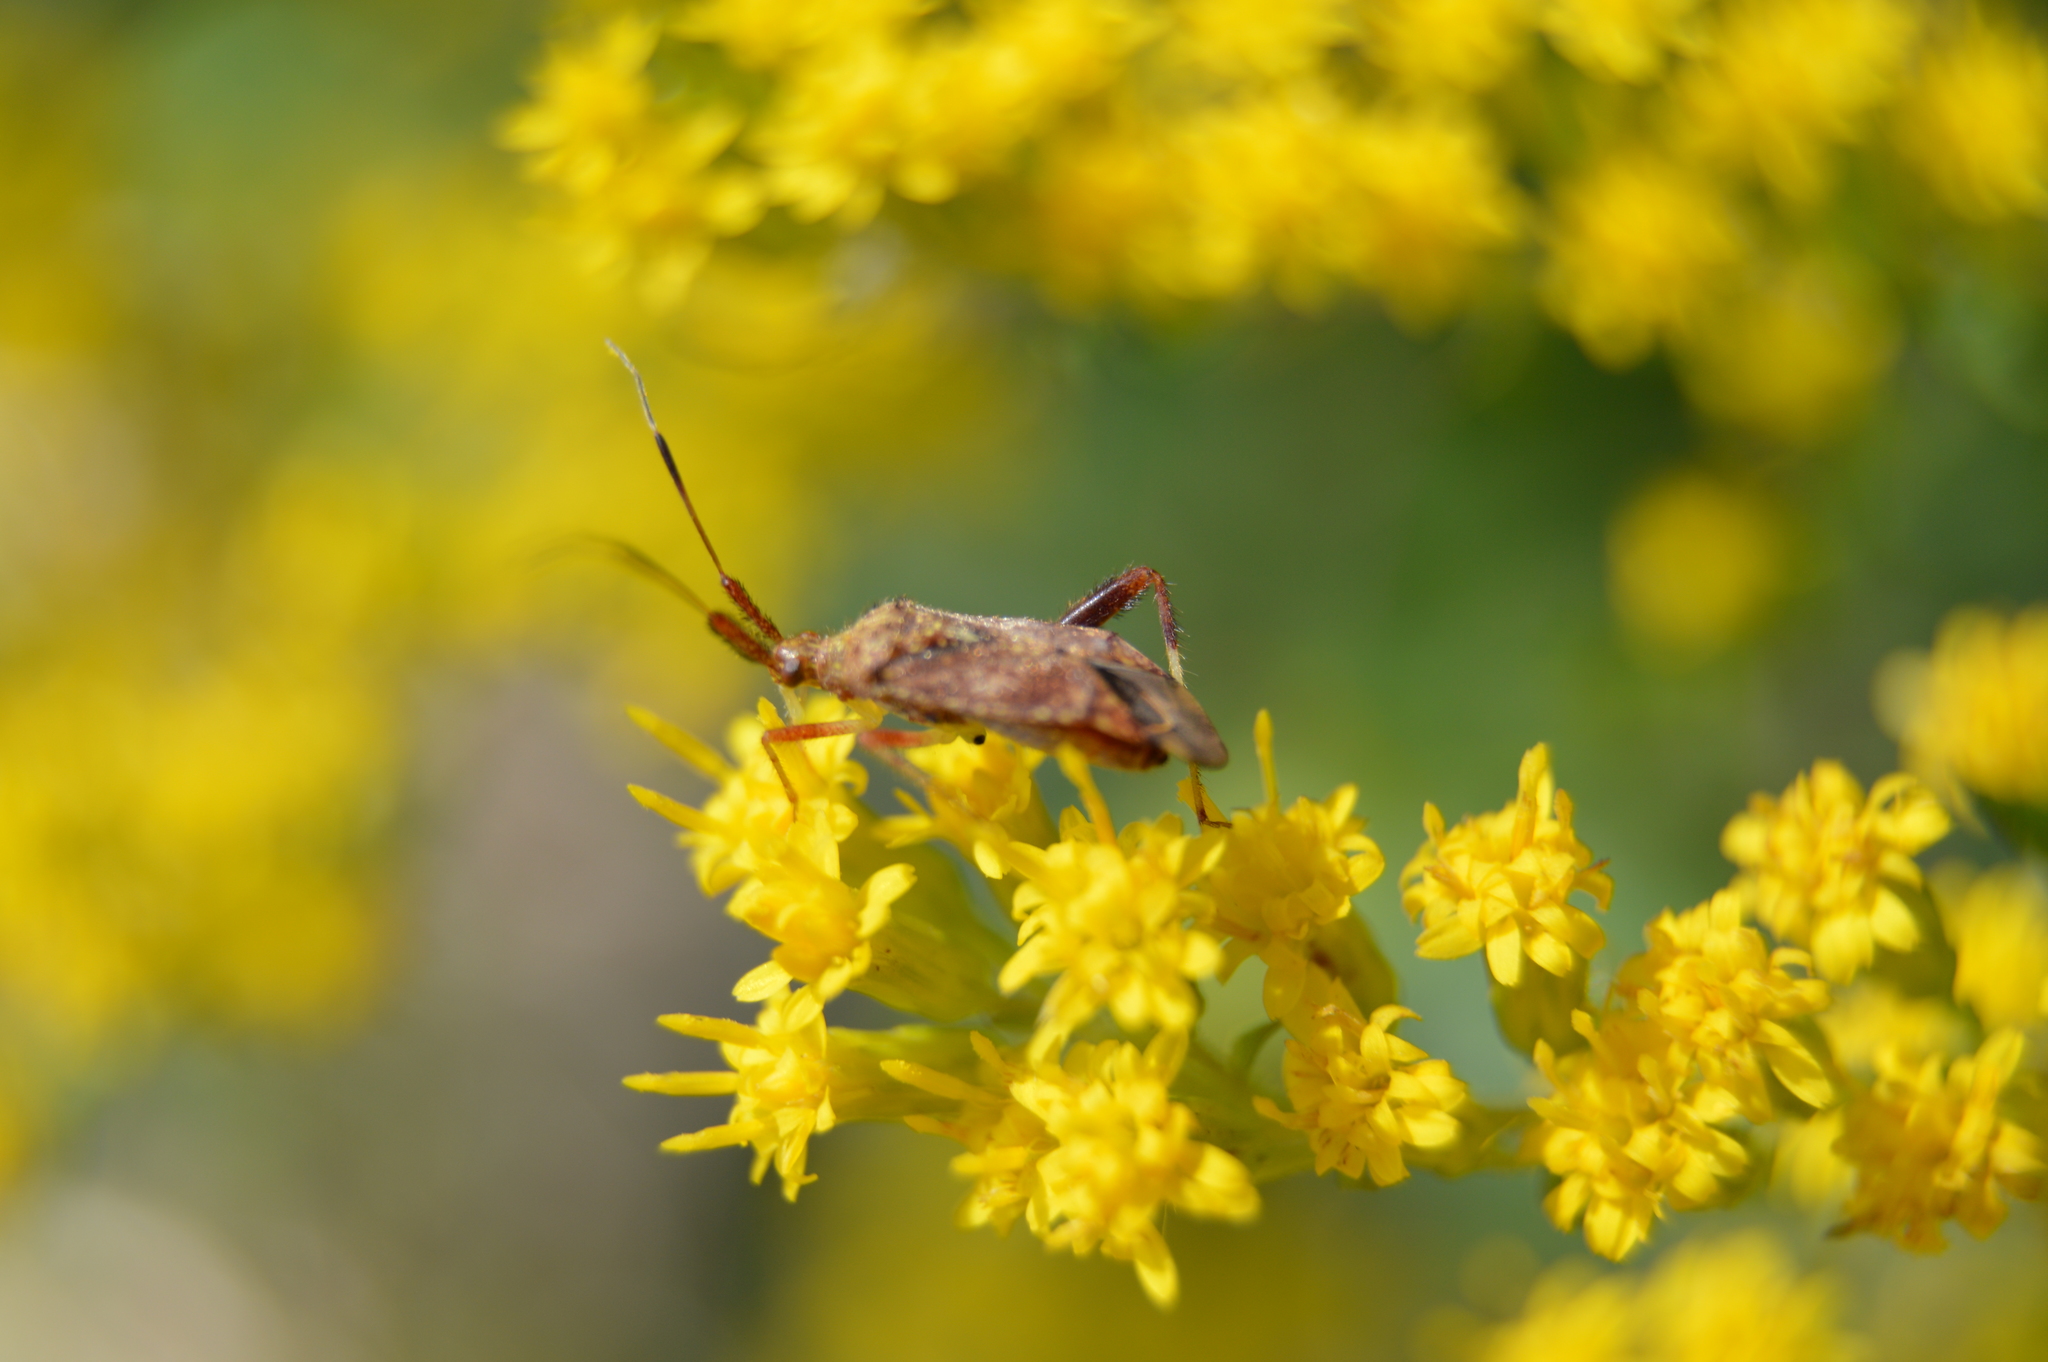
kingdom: Animalia
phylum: Arthropoda
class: Insecta
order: Hemiptera
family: Miridae
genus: Neurocolpus
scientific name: Neurocolpus nubilus
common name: Clouded plant bug
